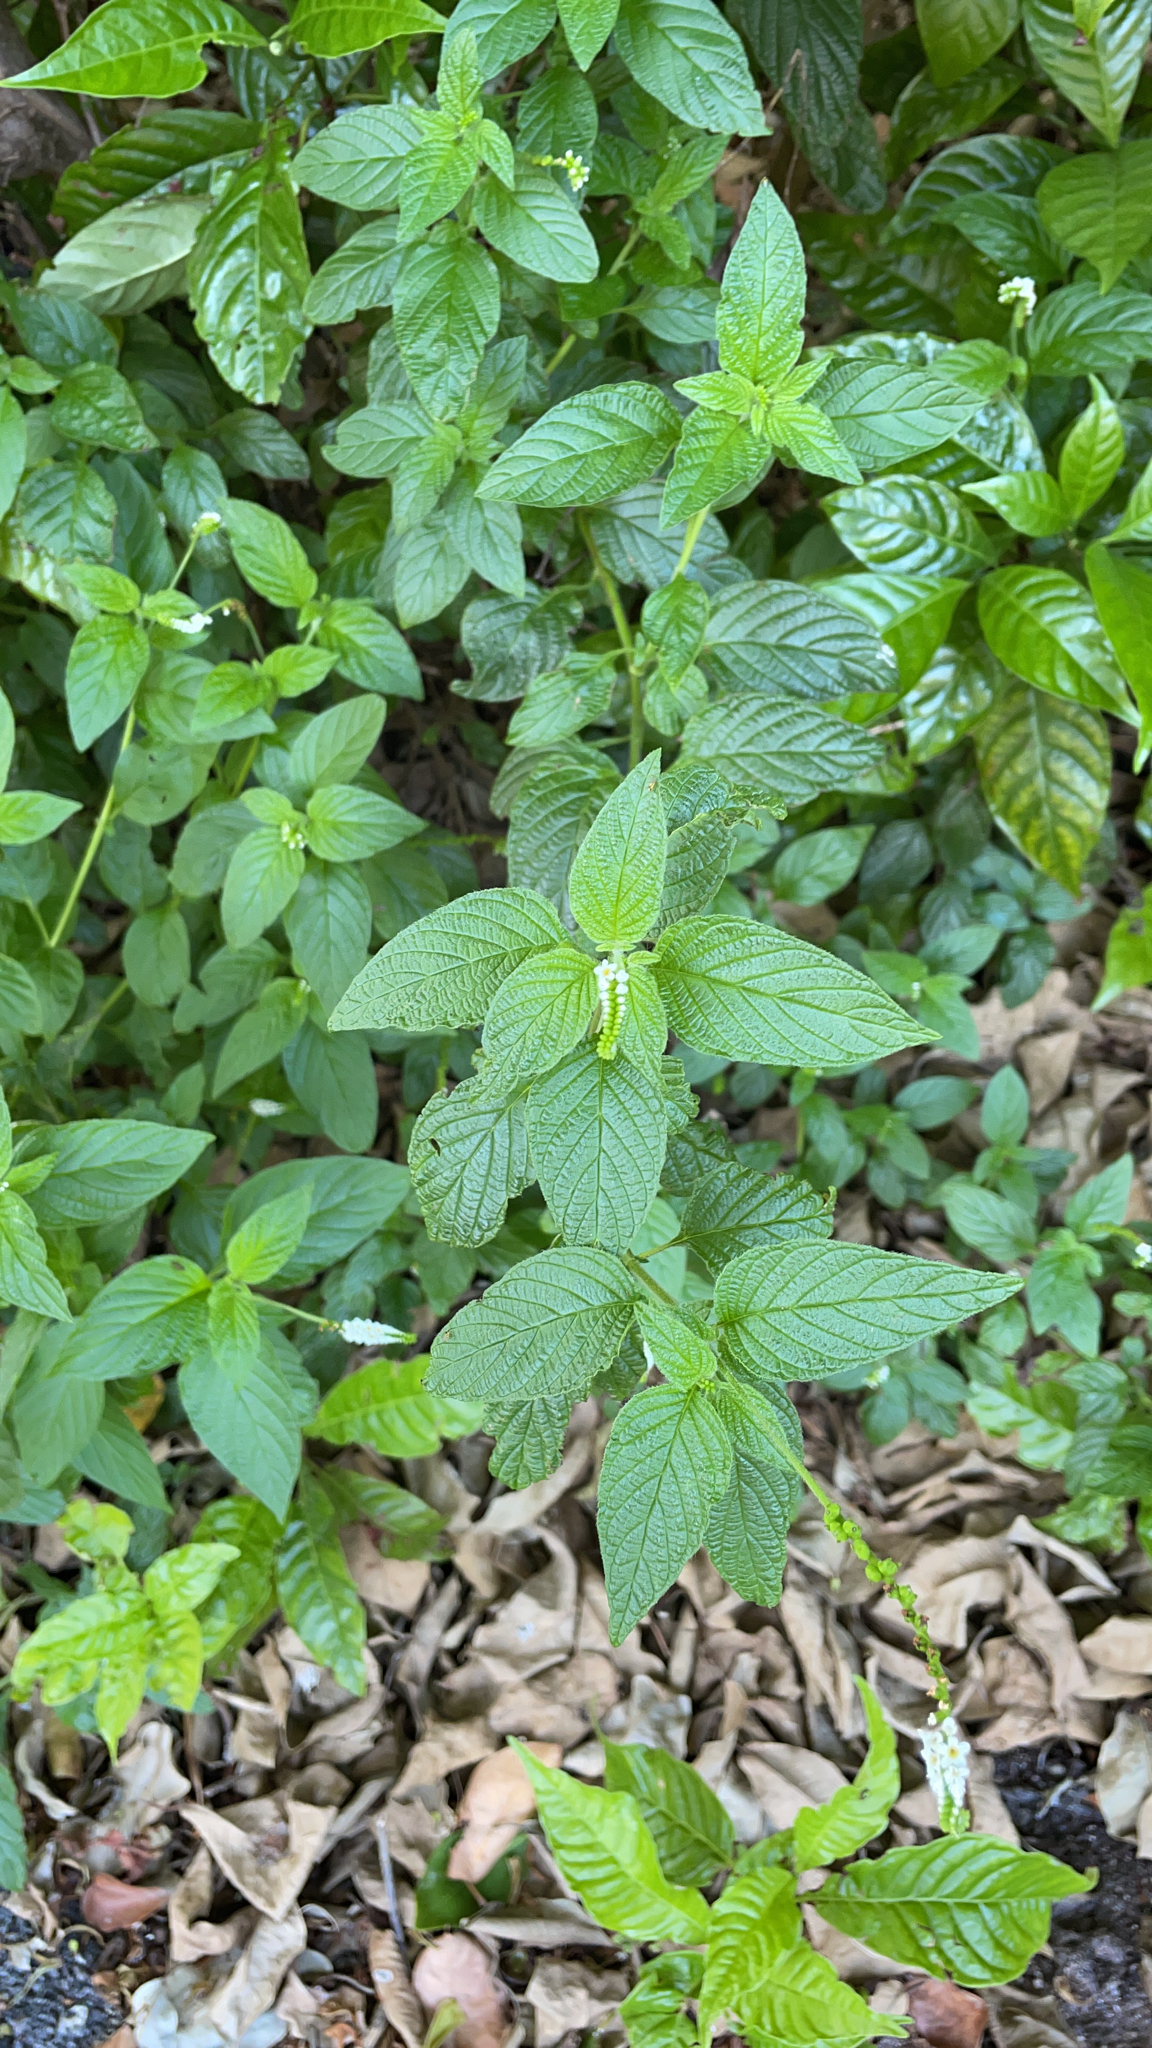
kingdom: Plantae
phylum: Tracheophyta
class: Magnoliopsida
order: Boraginales
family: Heliotropiaceae
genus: Heliotropium
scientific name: Heliotropium angiospermum
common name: Eye bright
